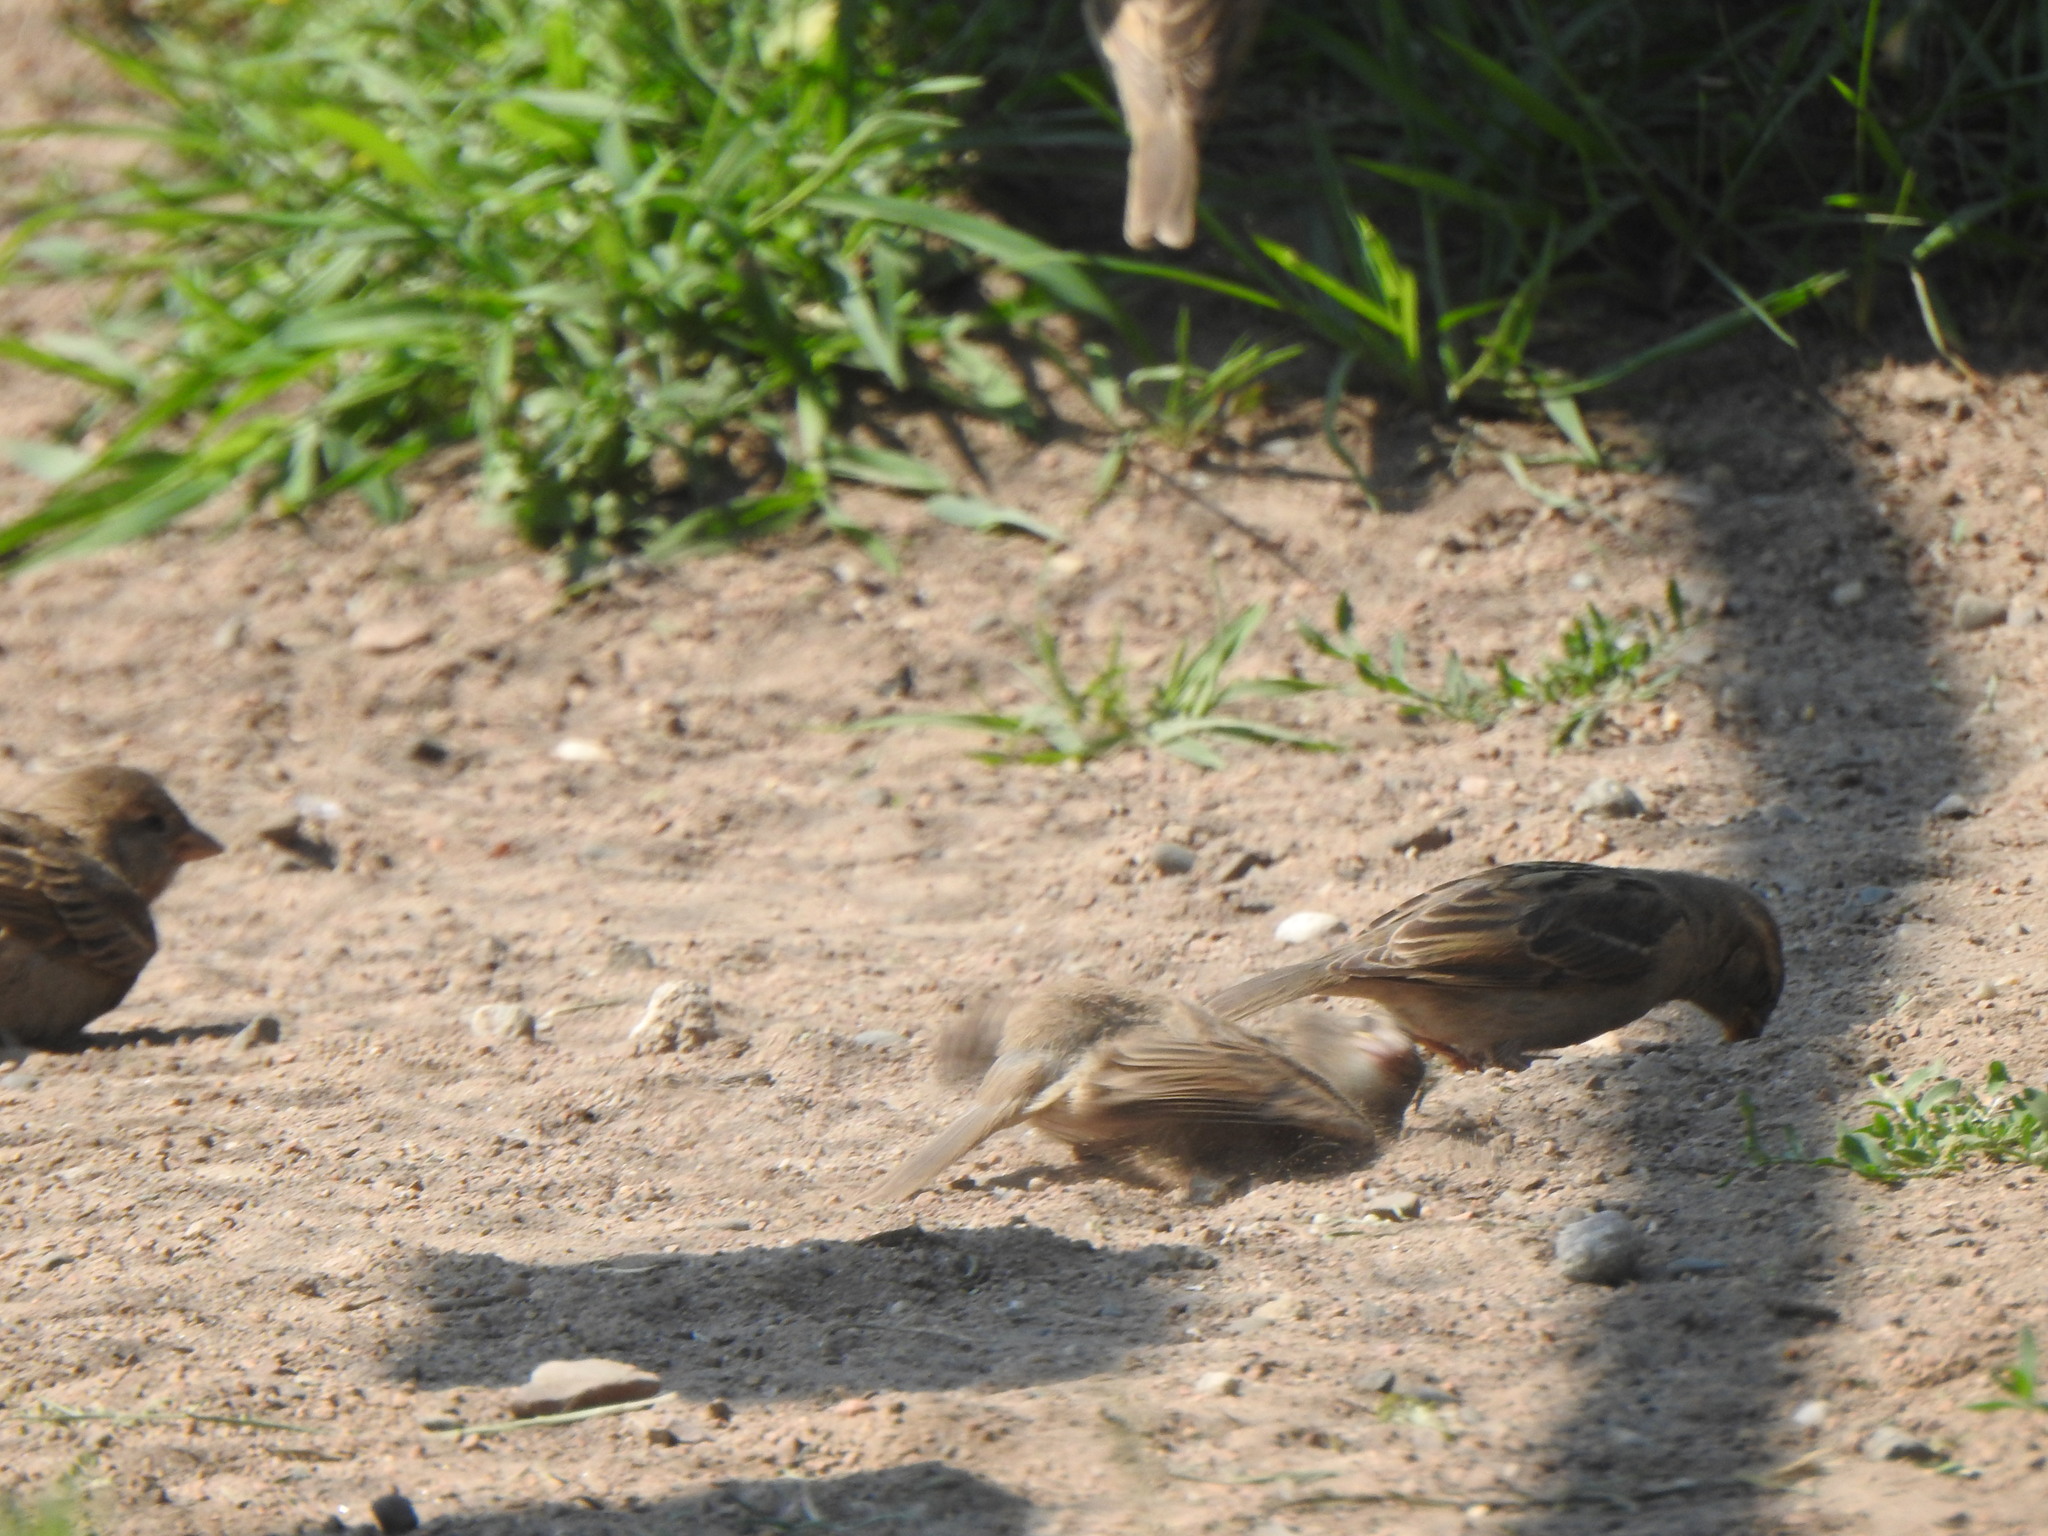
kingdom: Animalia
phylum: Chordata
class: Aves
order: Passeriformes
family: Passeridae
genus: Passer
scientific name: Passer domesticus
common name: House sparrow
